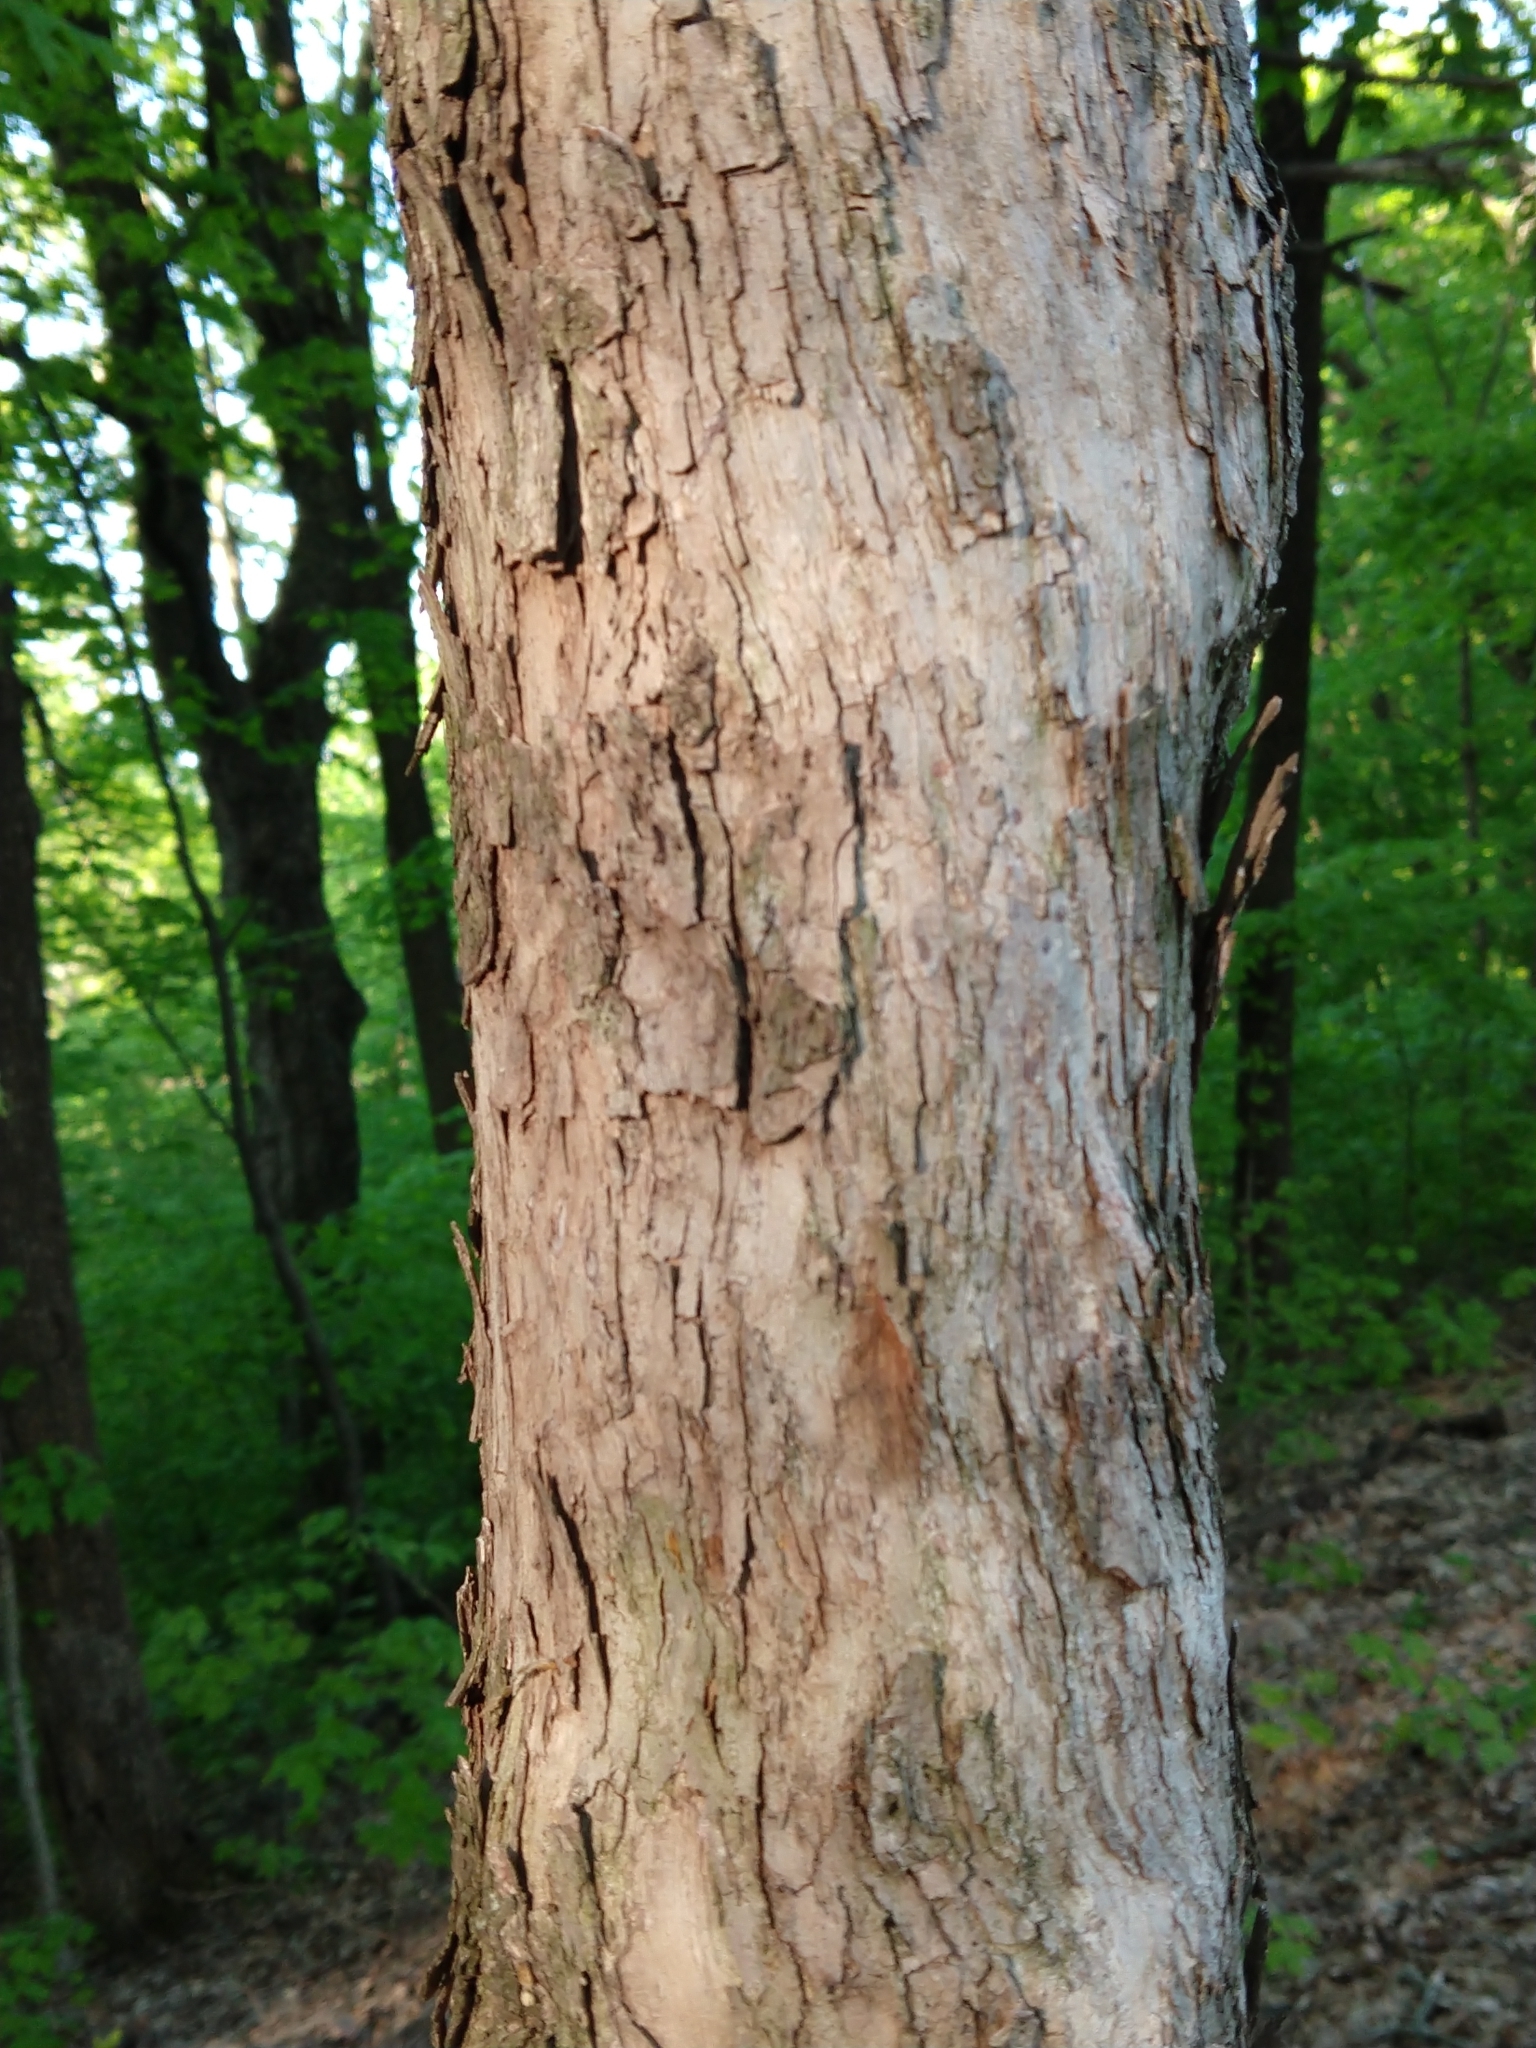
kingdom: Plantae
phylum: Tracheophyta
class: Magnoliopsida
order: Rosales
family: Ulmaceae
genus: Ulmus
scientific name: Ulmus americana
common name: American elm
